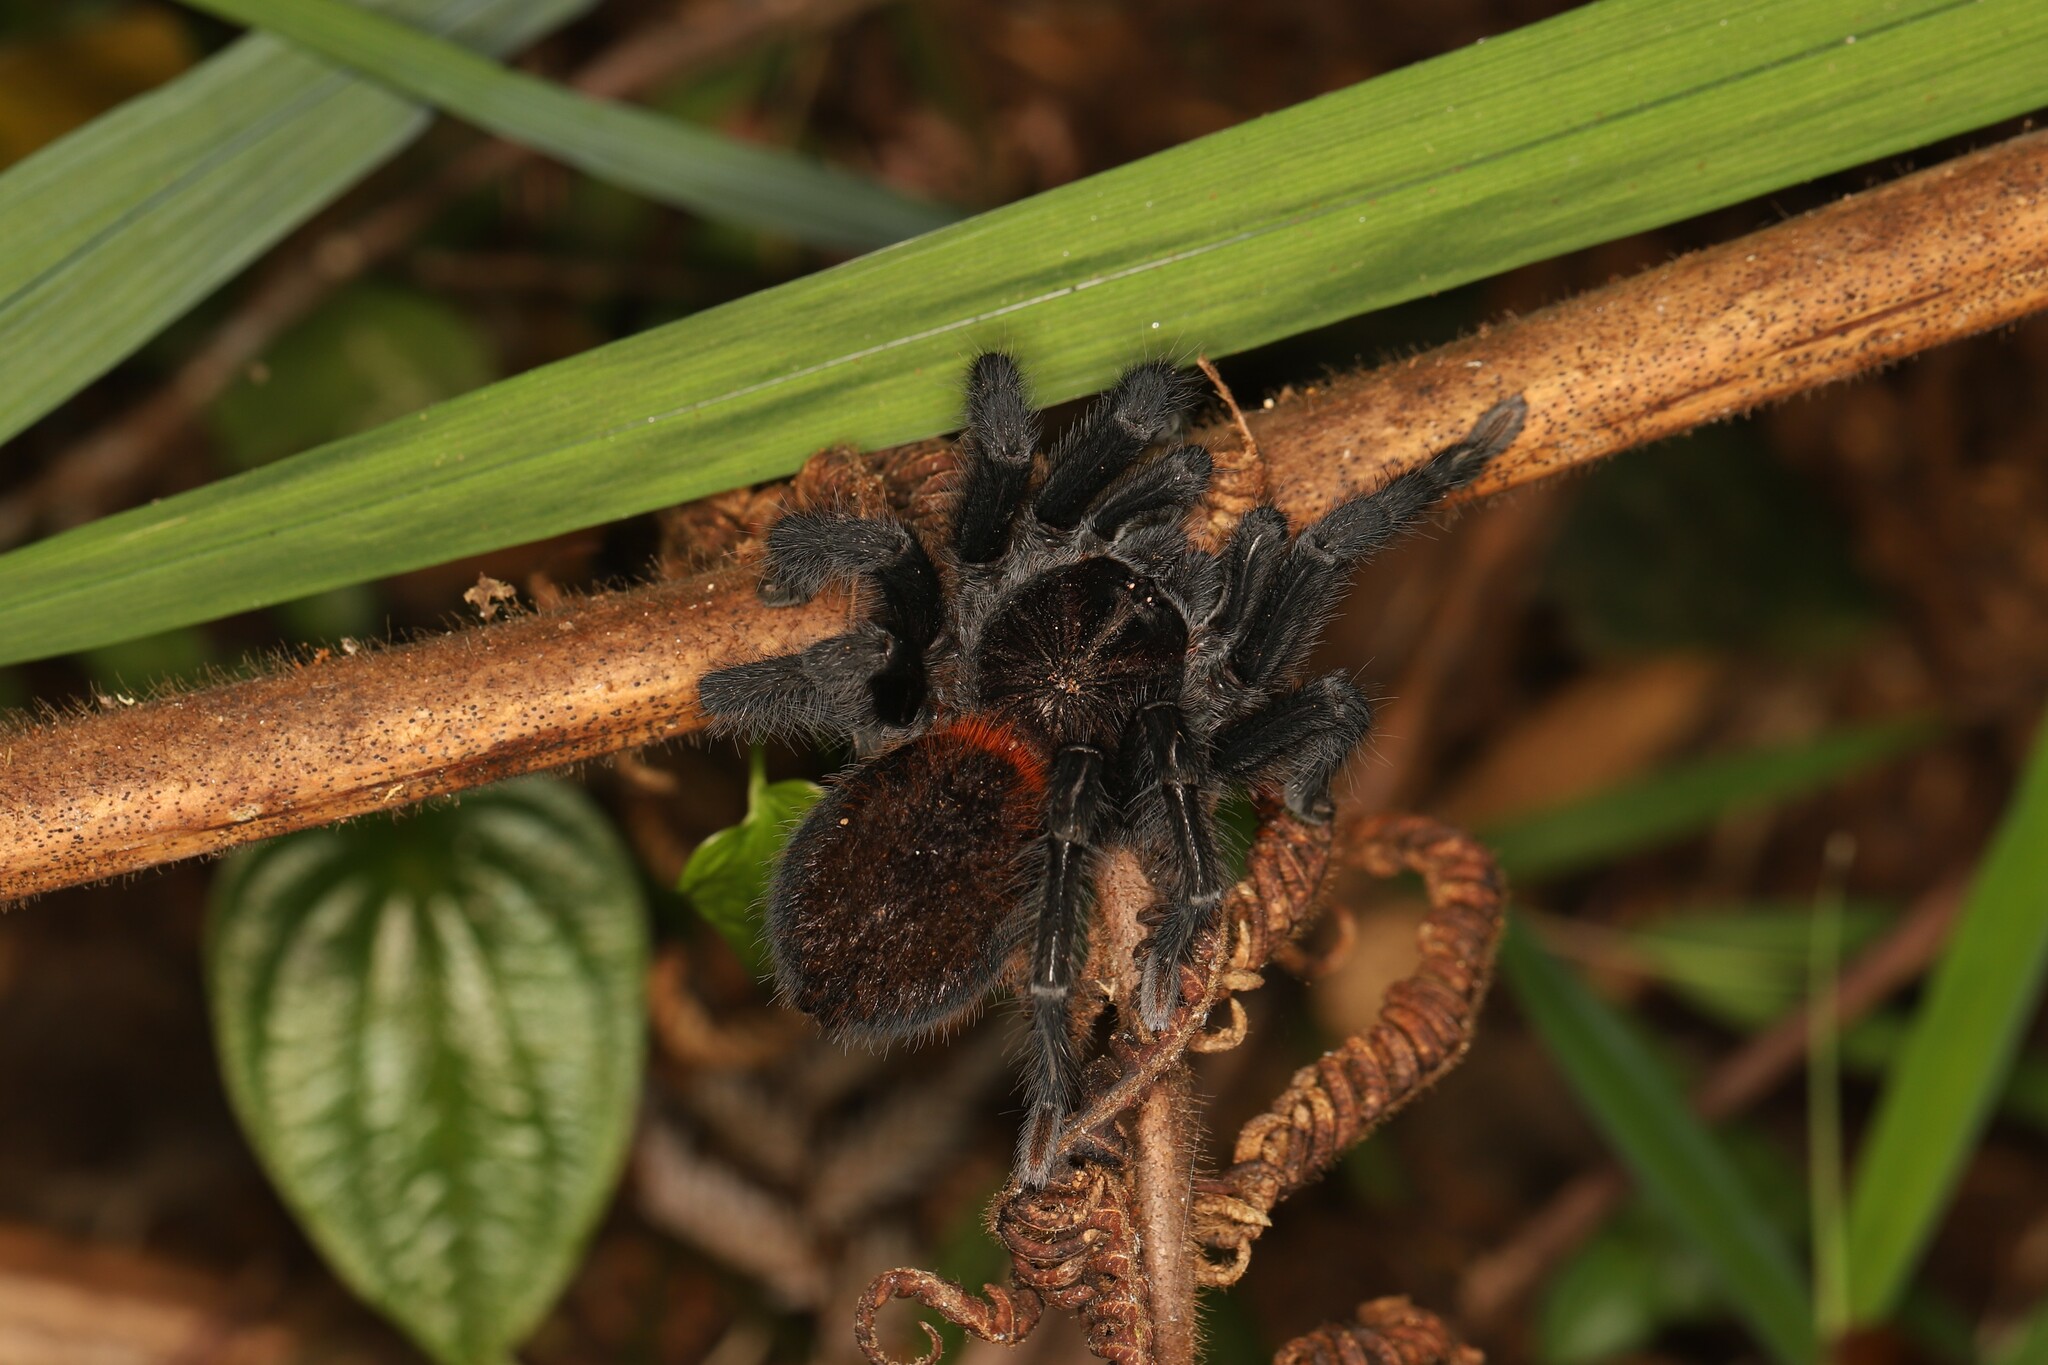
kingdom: Animalia
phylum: Arthropoda
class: Arachnida
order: Araneae
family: Theraphosidae
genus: Kankuamo
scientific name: Kankuamo marquezi
